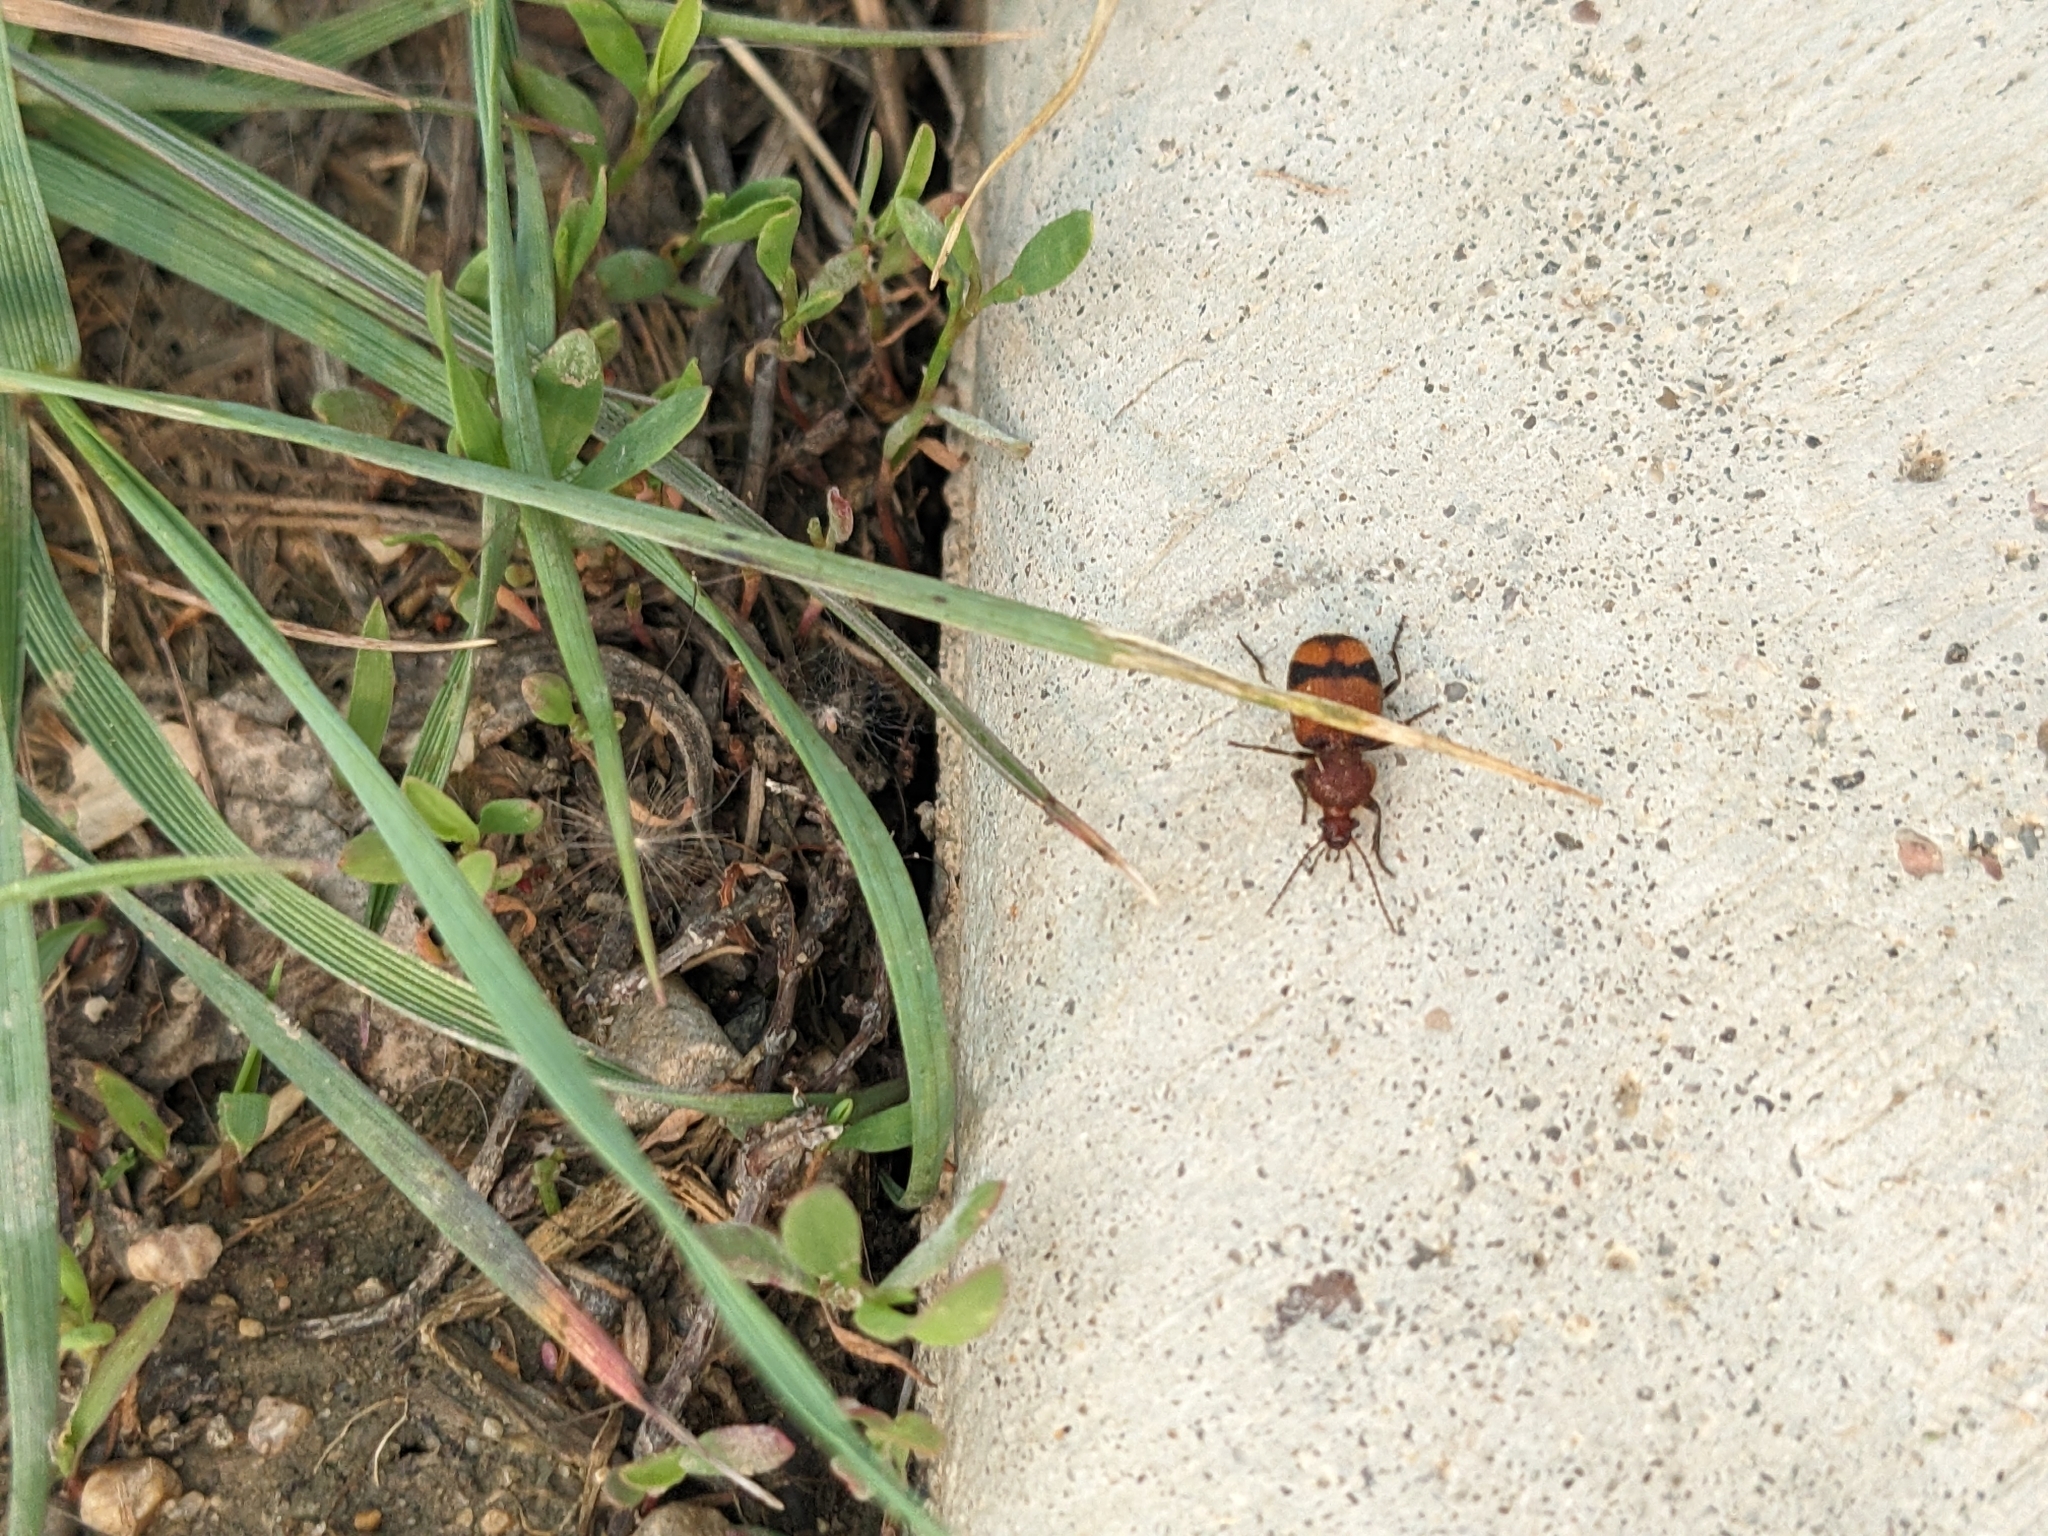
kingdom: Animalia
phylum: Arthropoda
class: Insecta
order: Coleoptera
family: Carabidae
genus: Panagaeus
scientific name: Panagaeus fasciatus
